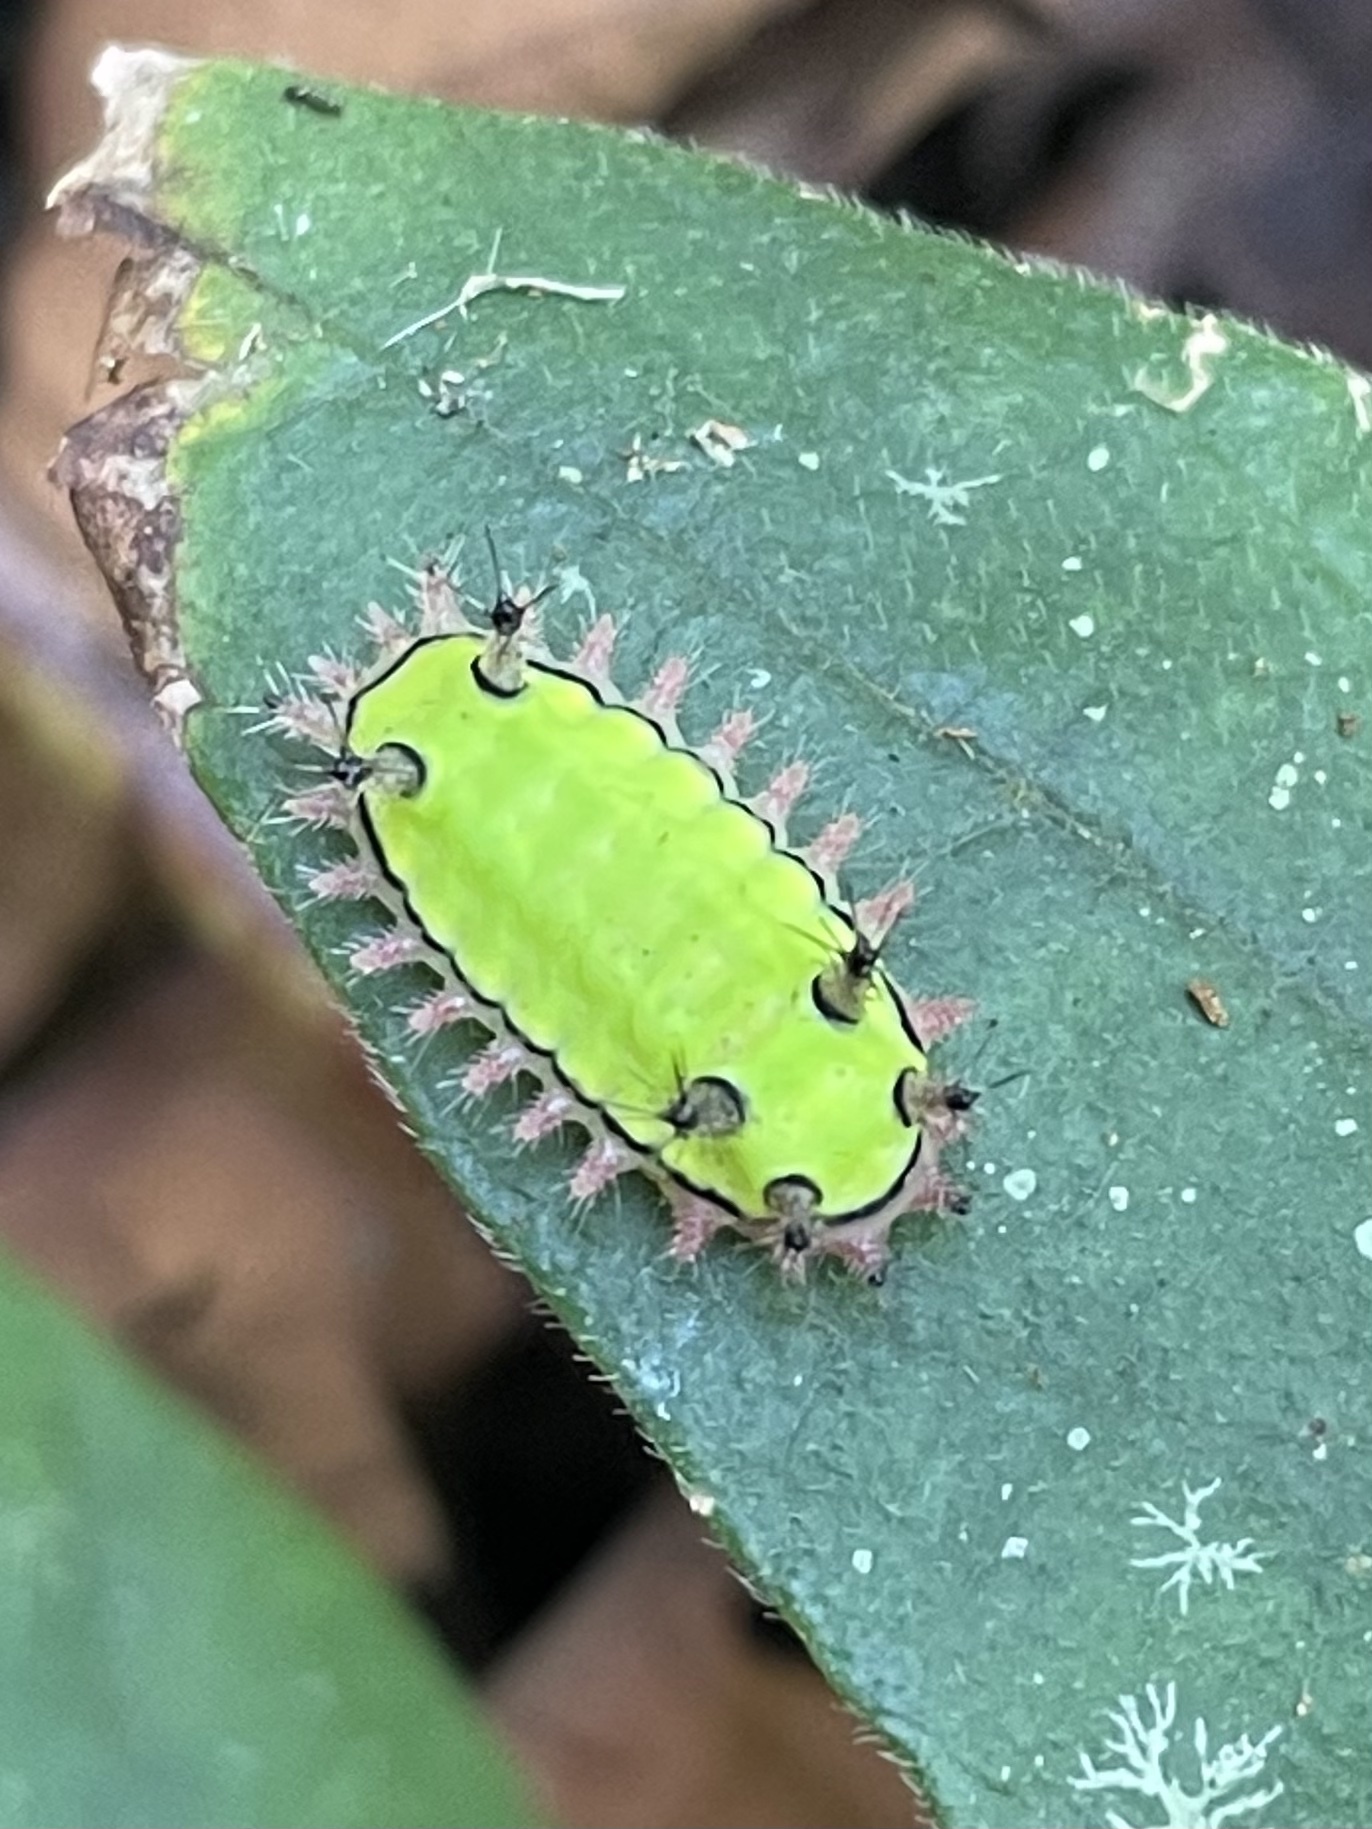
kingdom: Animalia
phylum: Arthropoda
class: Insecta
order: Lepidoptera
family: Limacodidae
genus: Acharia
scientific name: Acharia
